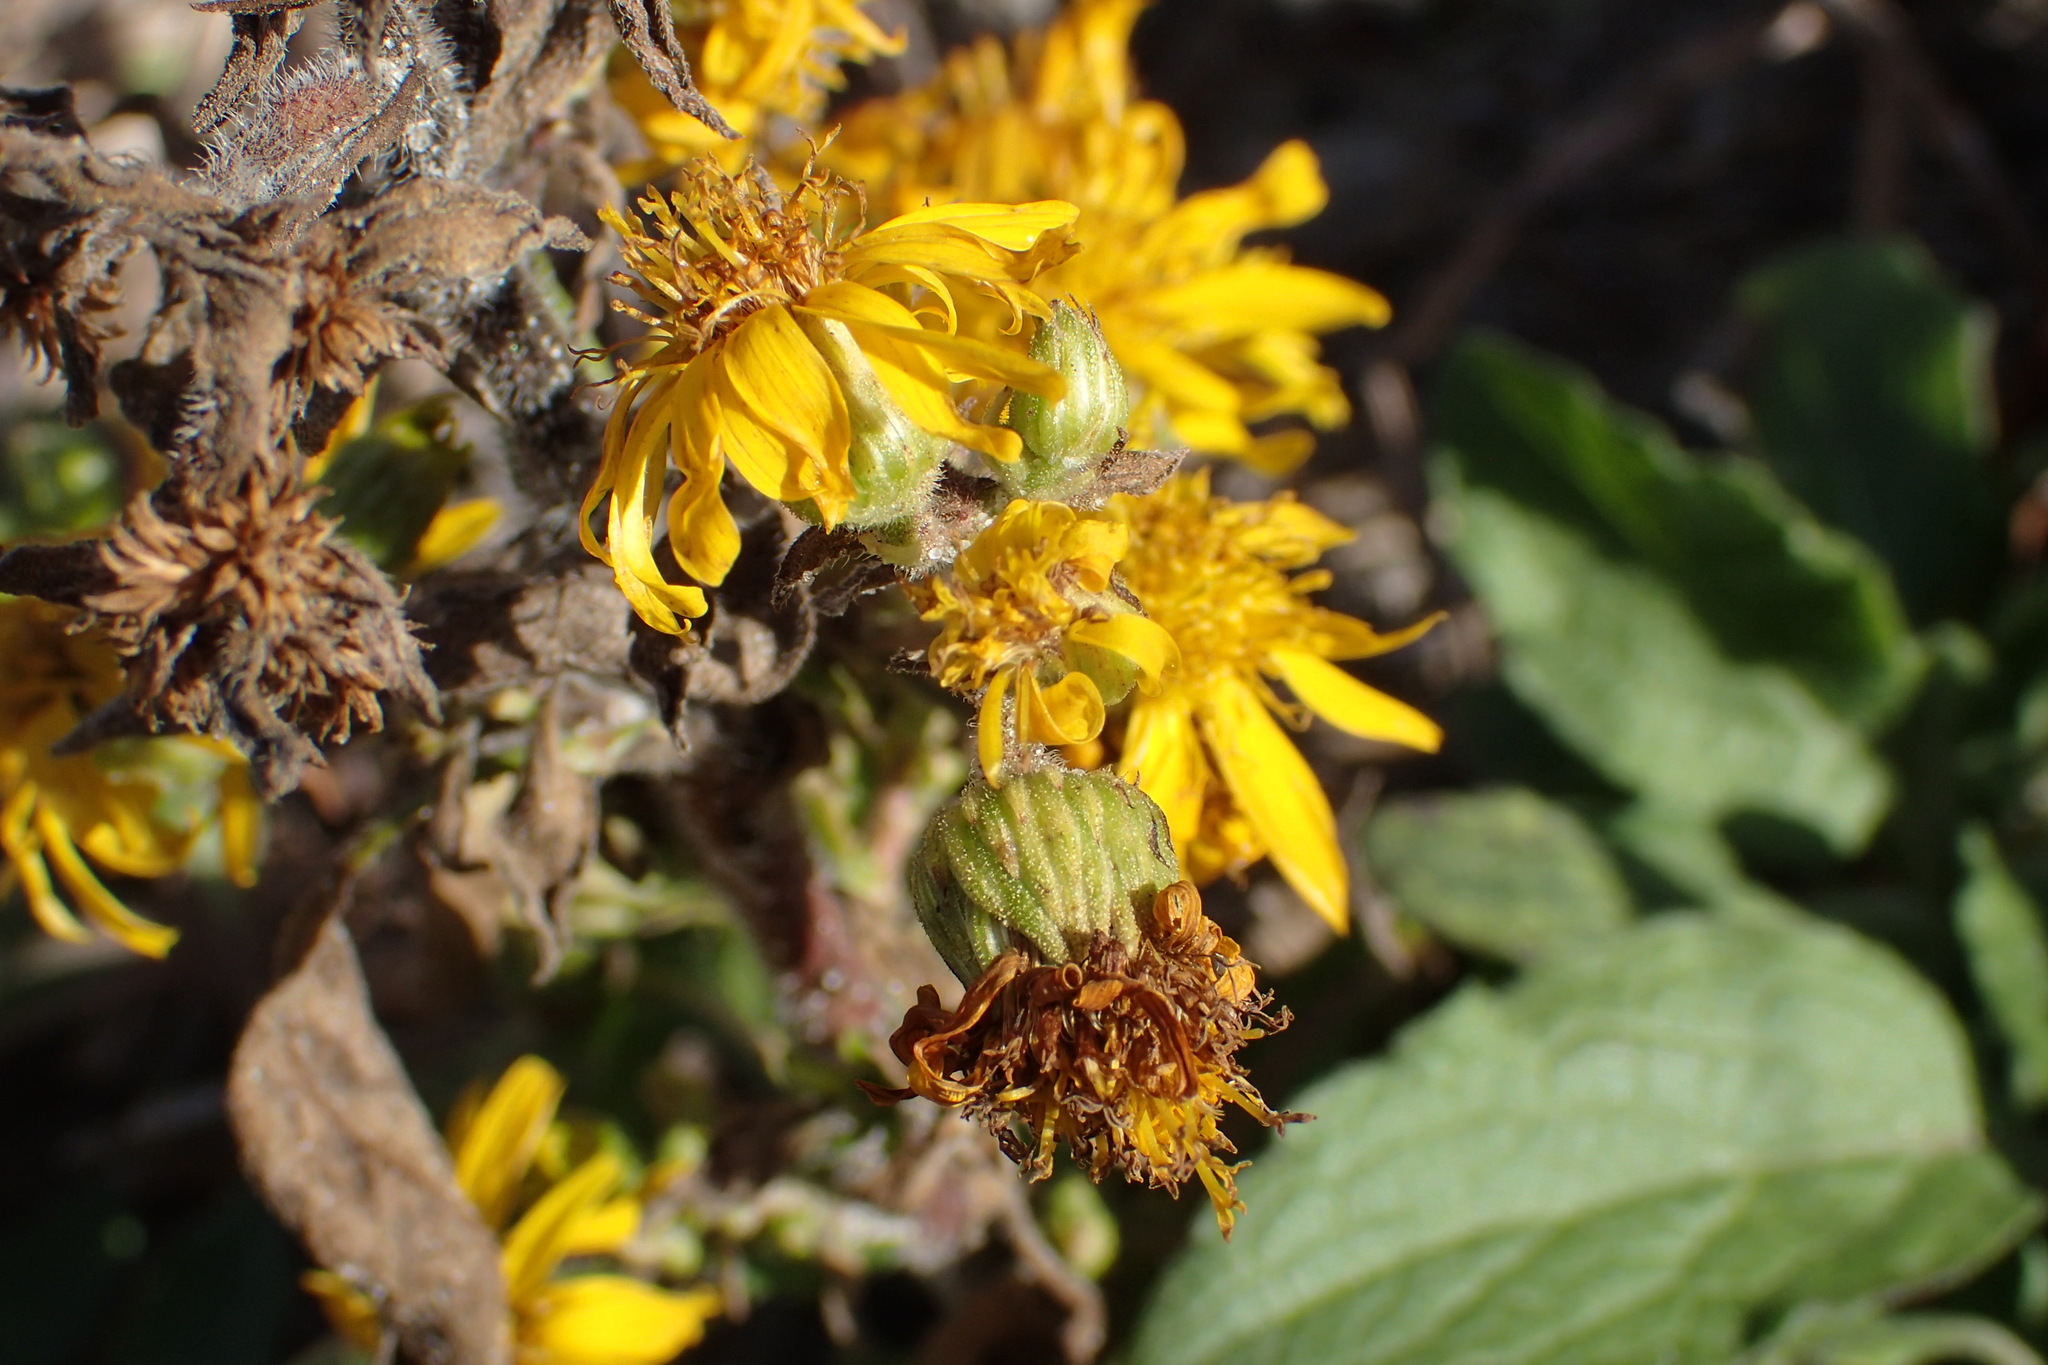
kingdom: Plantae
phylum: Tracheophyta
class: Magnoliopsida
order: Asterales
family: Asteraceae
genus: Heterotheca
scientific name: Heterotheca subaxillaris
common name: Camphorweed
